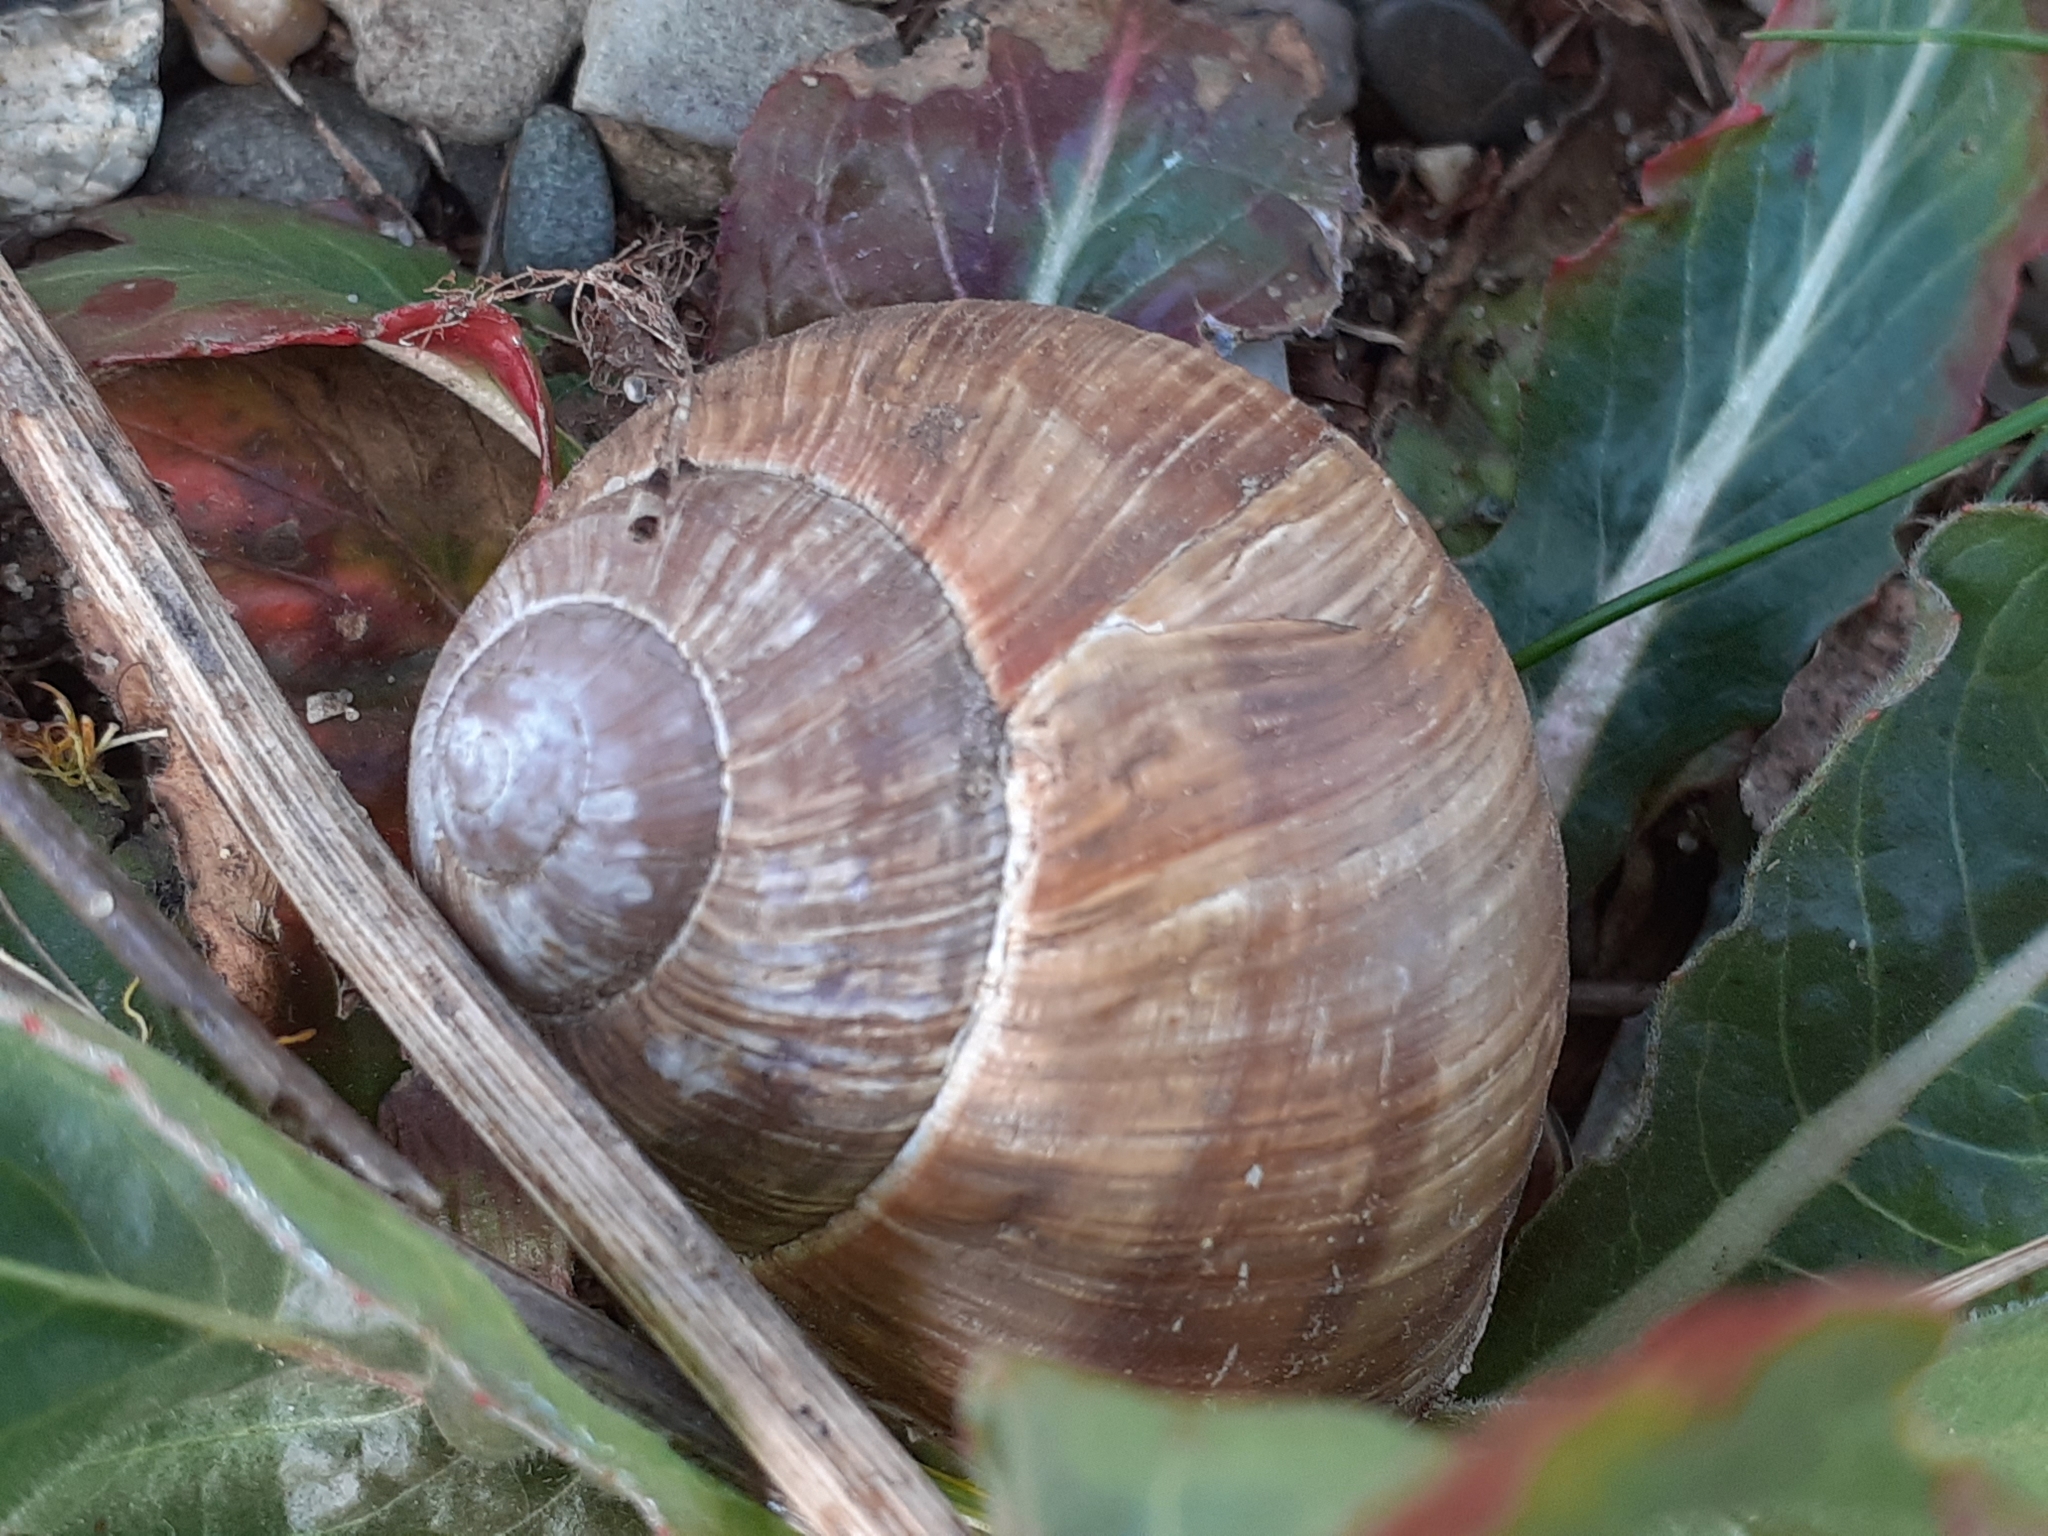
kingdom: Animalia
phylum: Mollusca
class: Gastropoda
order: Stylommatophora
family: Helicidae
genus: Helix
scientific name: Helix pomatia
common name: Roman snail
